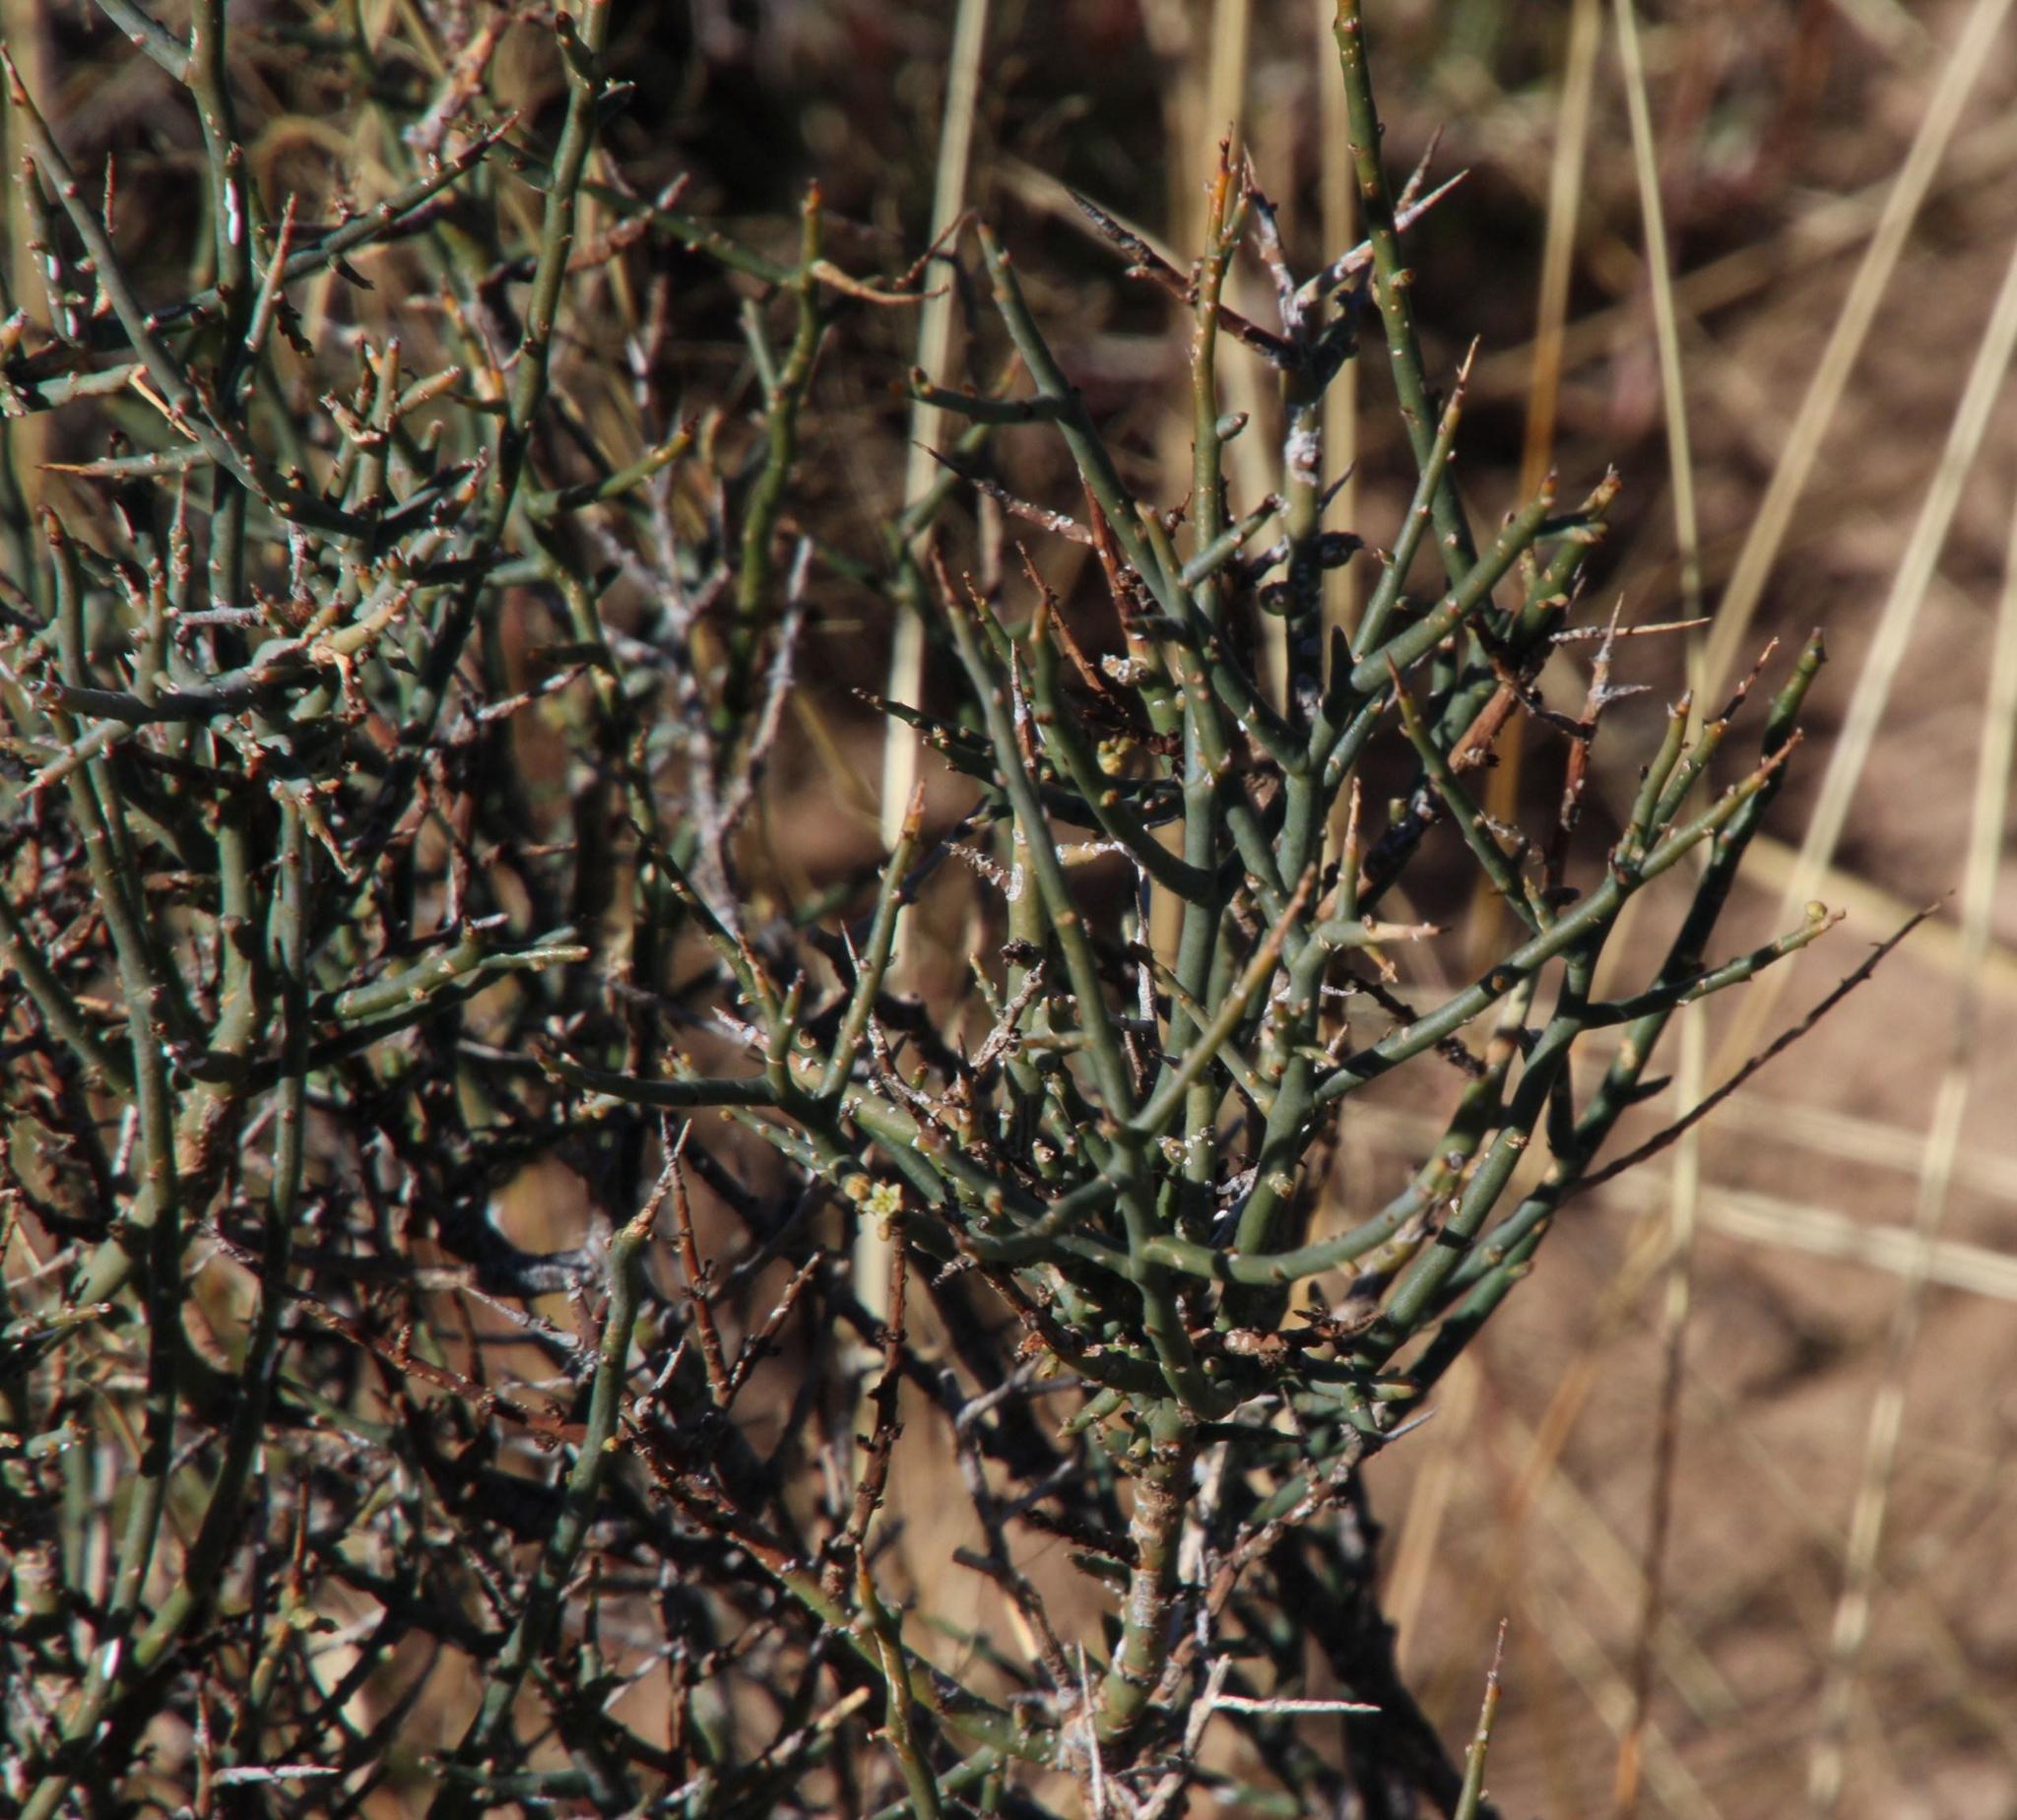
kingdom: Plantae
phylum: Tracheophyta
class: Magnoliopsida
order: Santalales
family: Thesiaceae
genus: Lacomucinaea
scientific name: Lacomucinaea lineata
